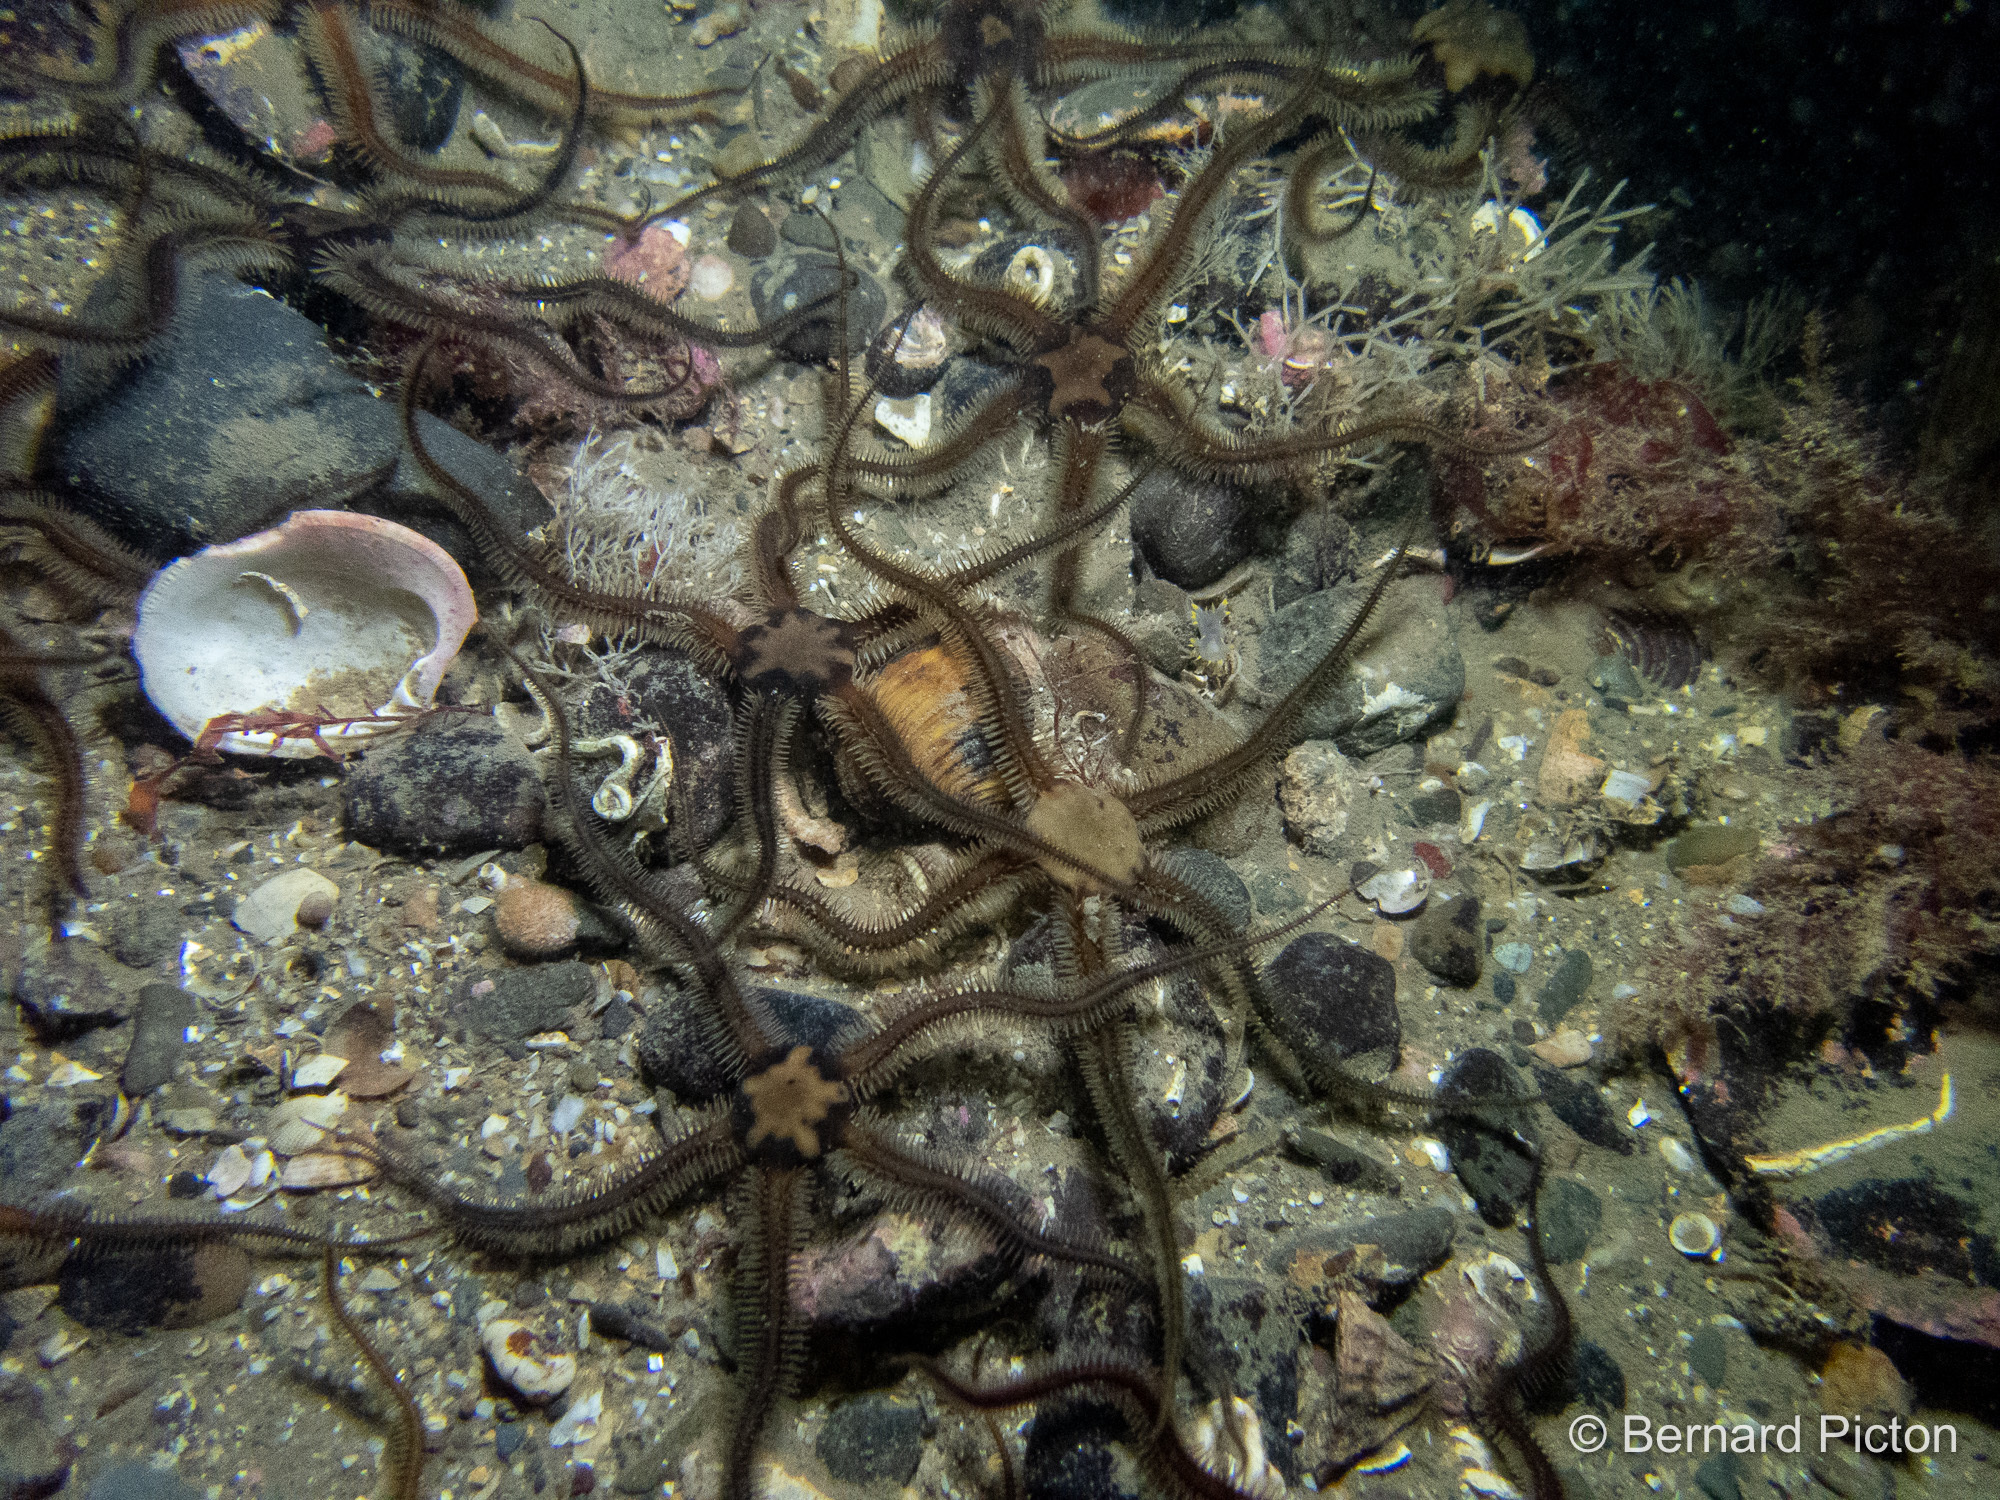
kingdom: Animalia
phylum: Echinodermata
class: Ophiuroidea
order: Ophiacanthida
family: Ophiotomidae
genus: Ophiocomina
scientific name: Ophiocomina nigra
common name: Black brittle star
